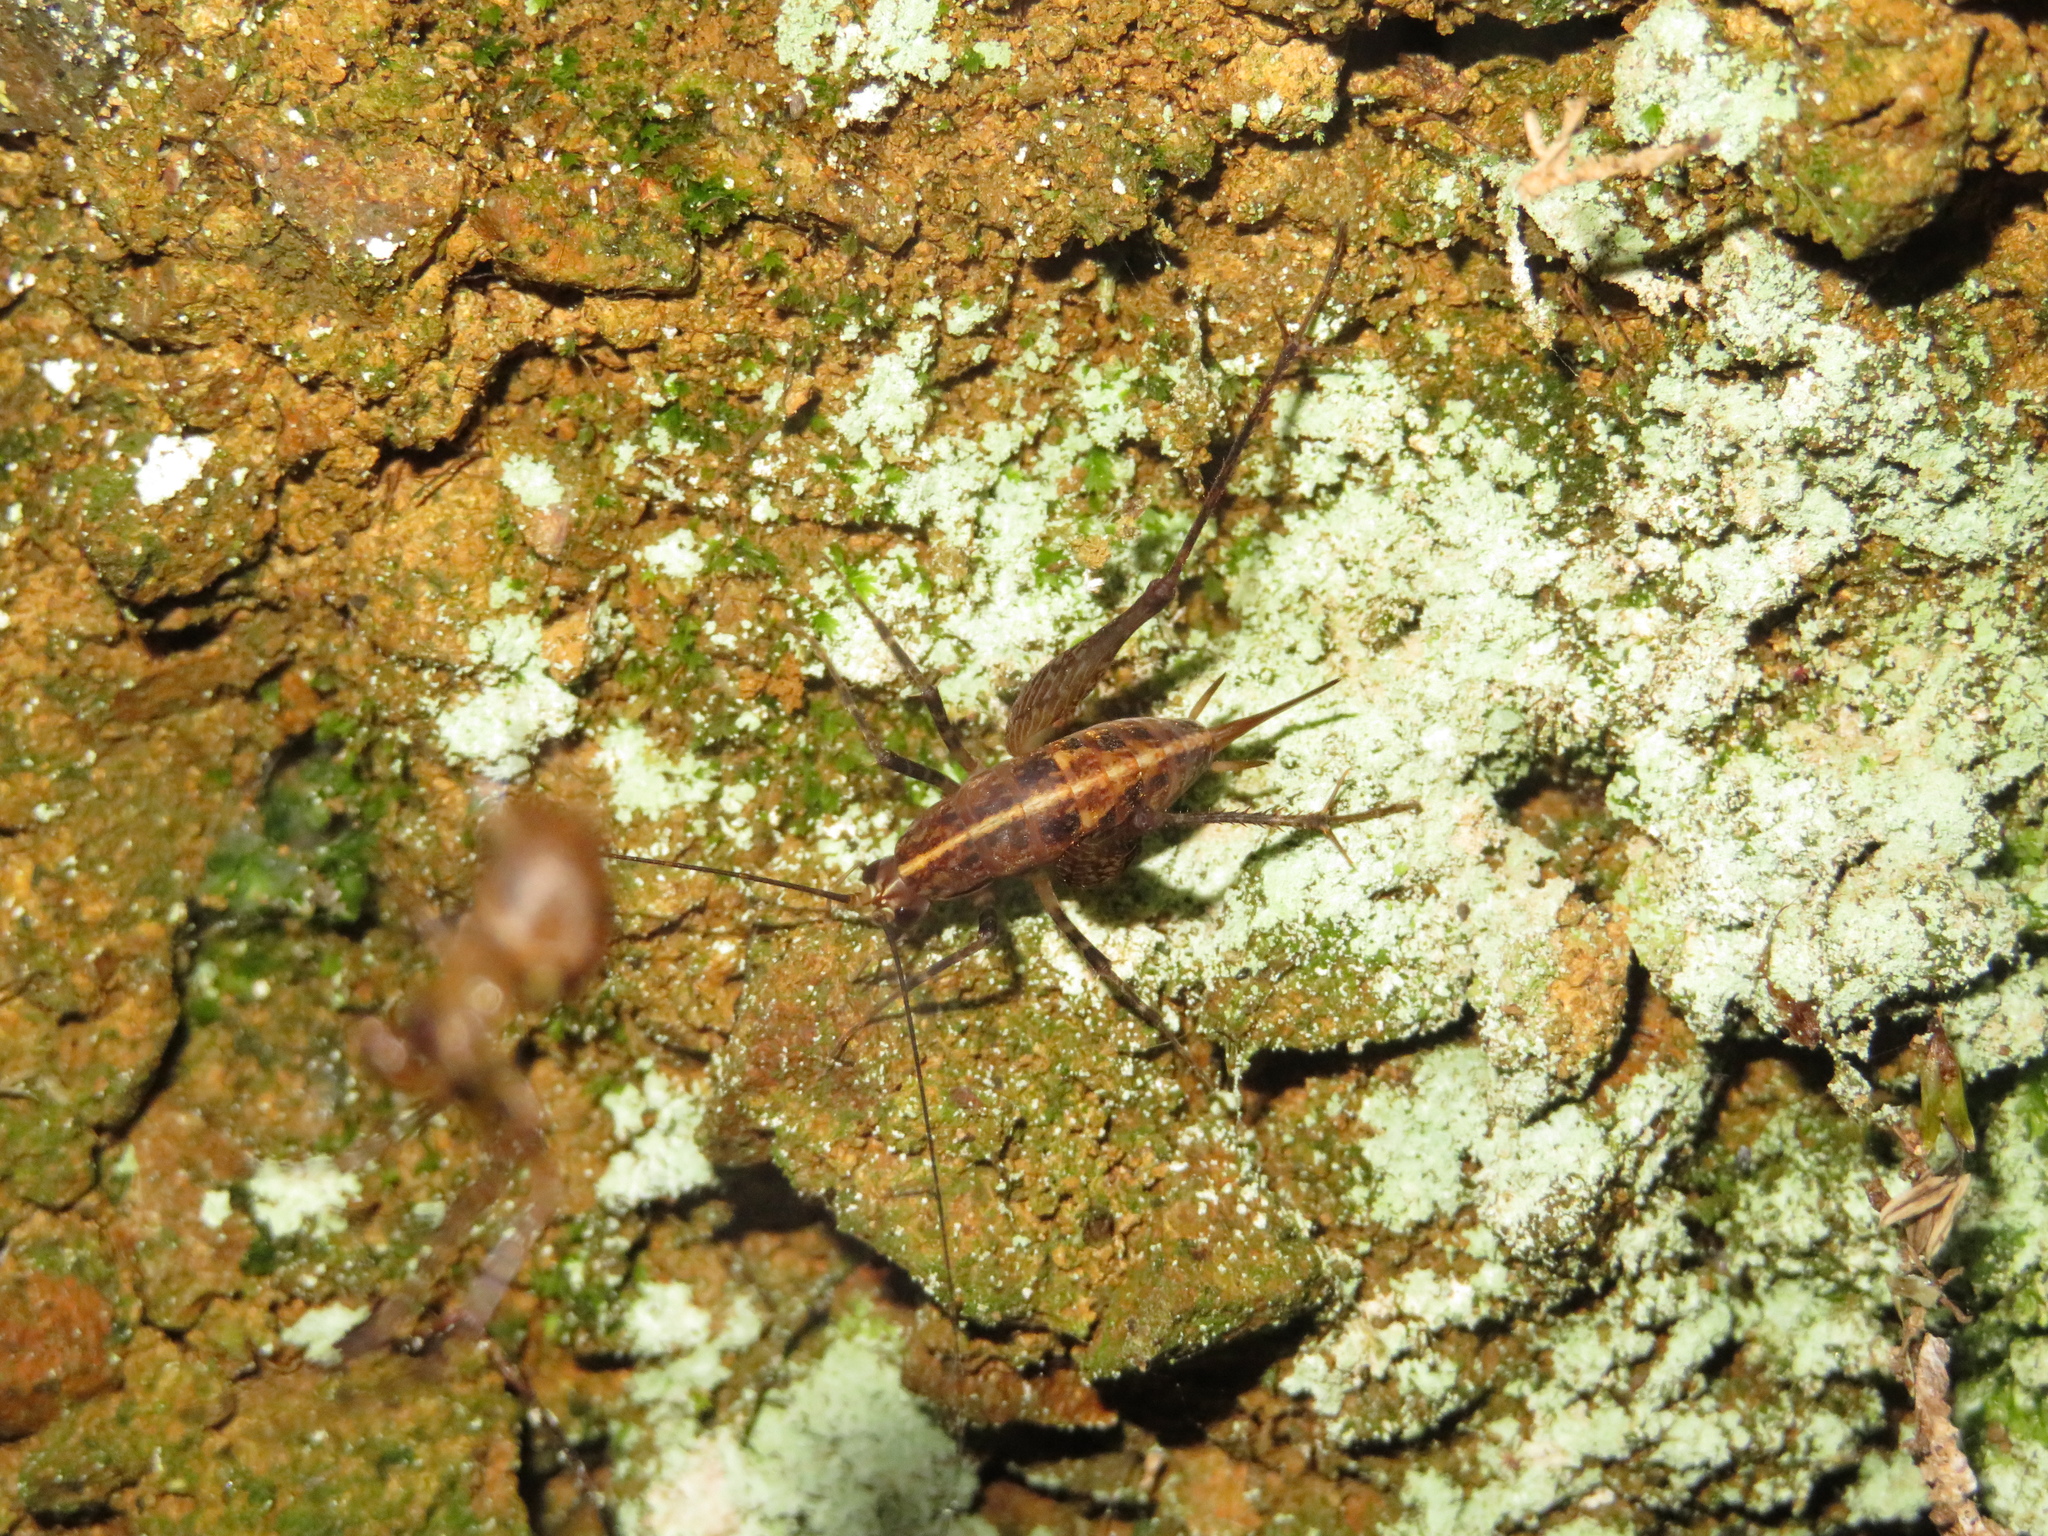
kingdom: Animalia
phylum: Arthropoda
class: Insecta
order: Orthoptera
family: Rhaphidophoridae
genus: Pleioplectron
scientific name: Pleioplectron hudsoni
